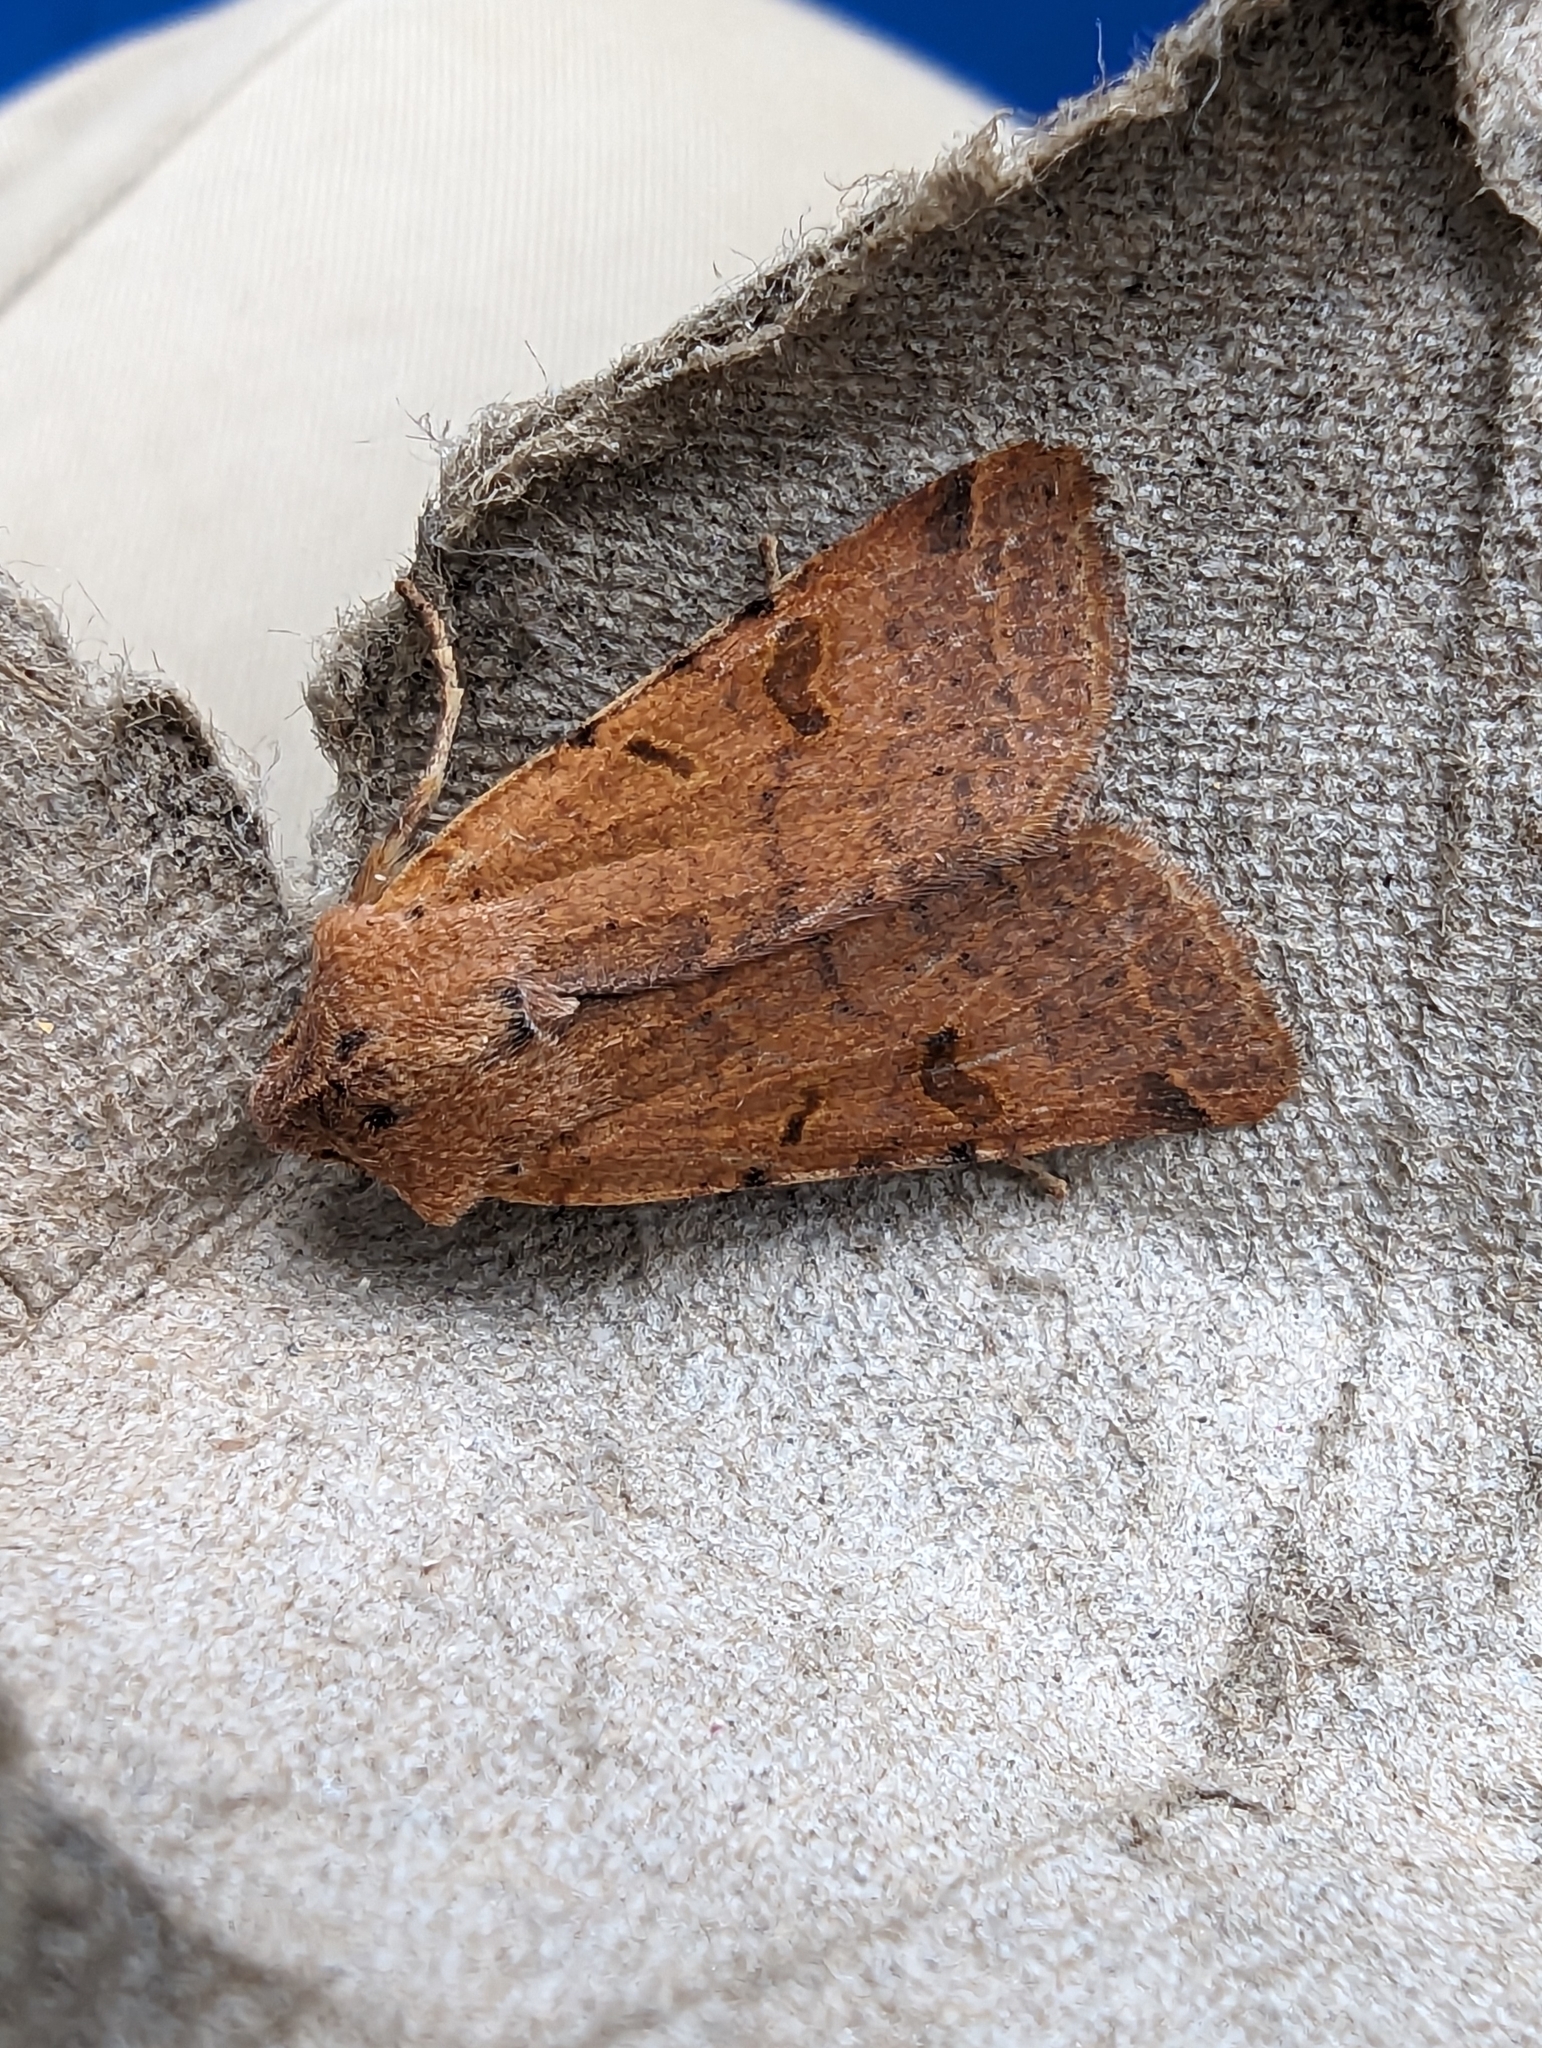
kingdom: Animalia
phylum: Arthropoda
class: Insecta
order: Lepidoptera
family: Noctuidae
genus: Agrochola
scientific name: Agrochola lychnidis
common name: Beaded chestnut
